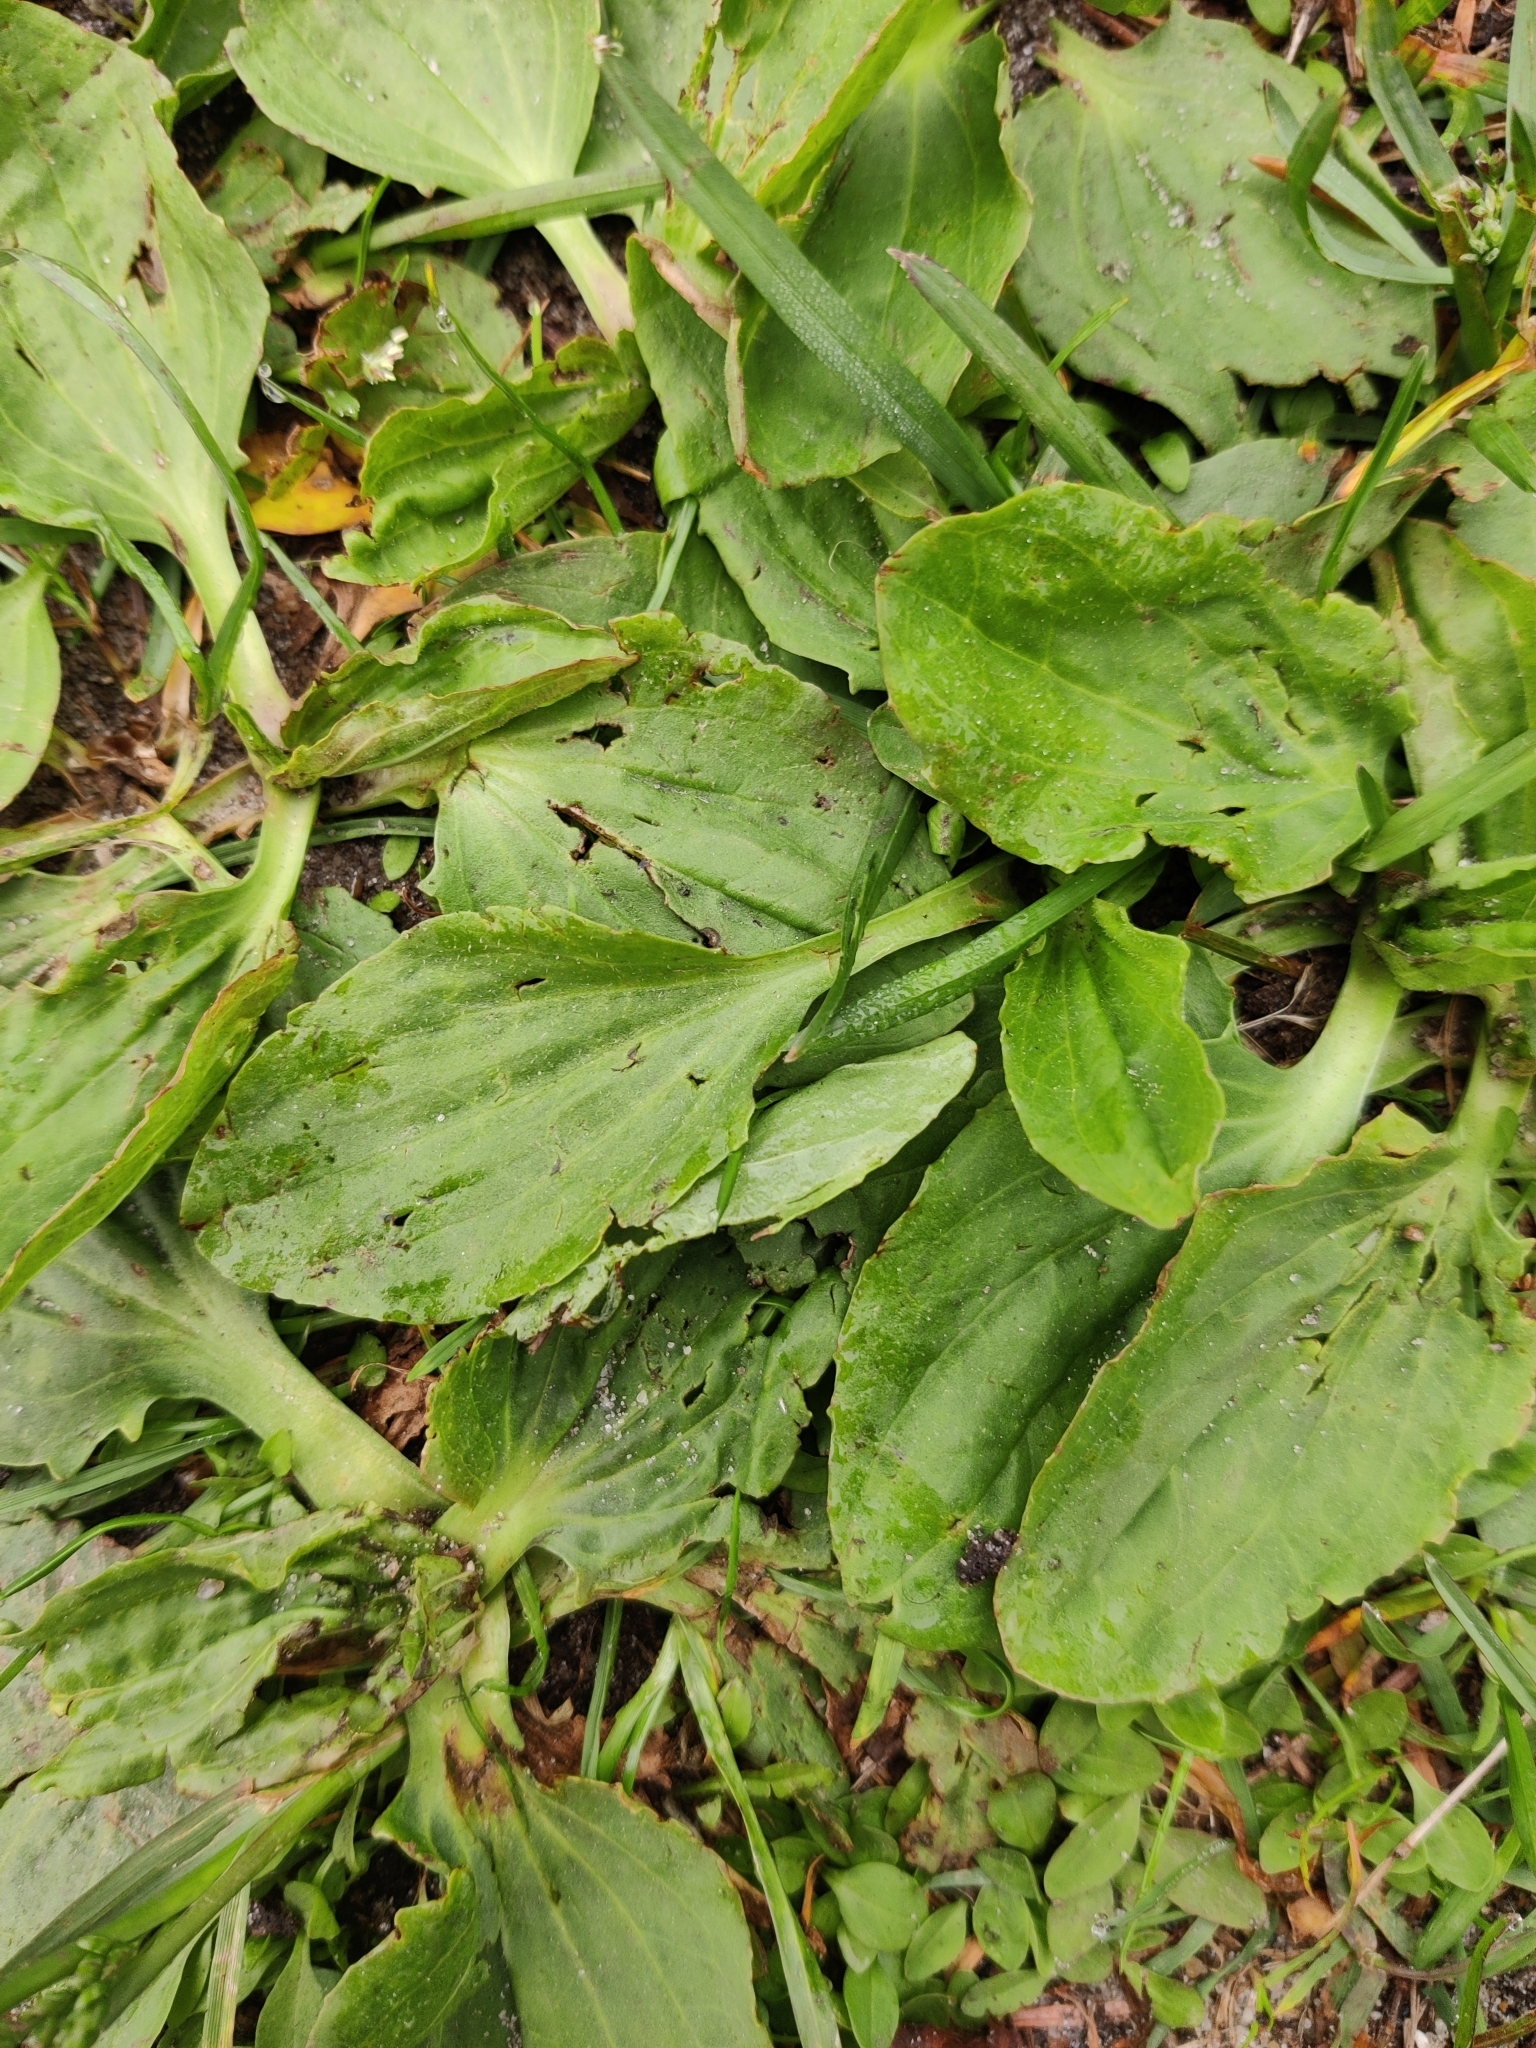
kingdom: Plantae
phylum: Tracheophyta
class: Magnoliopsida
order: Lamiales
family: Plantaginaceae
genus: Plantago
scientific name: Plantago major
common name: Common plantain
